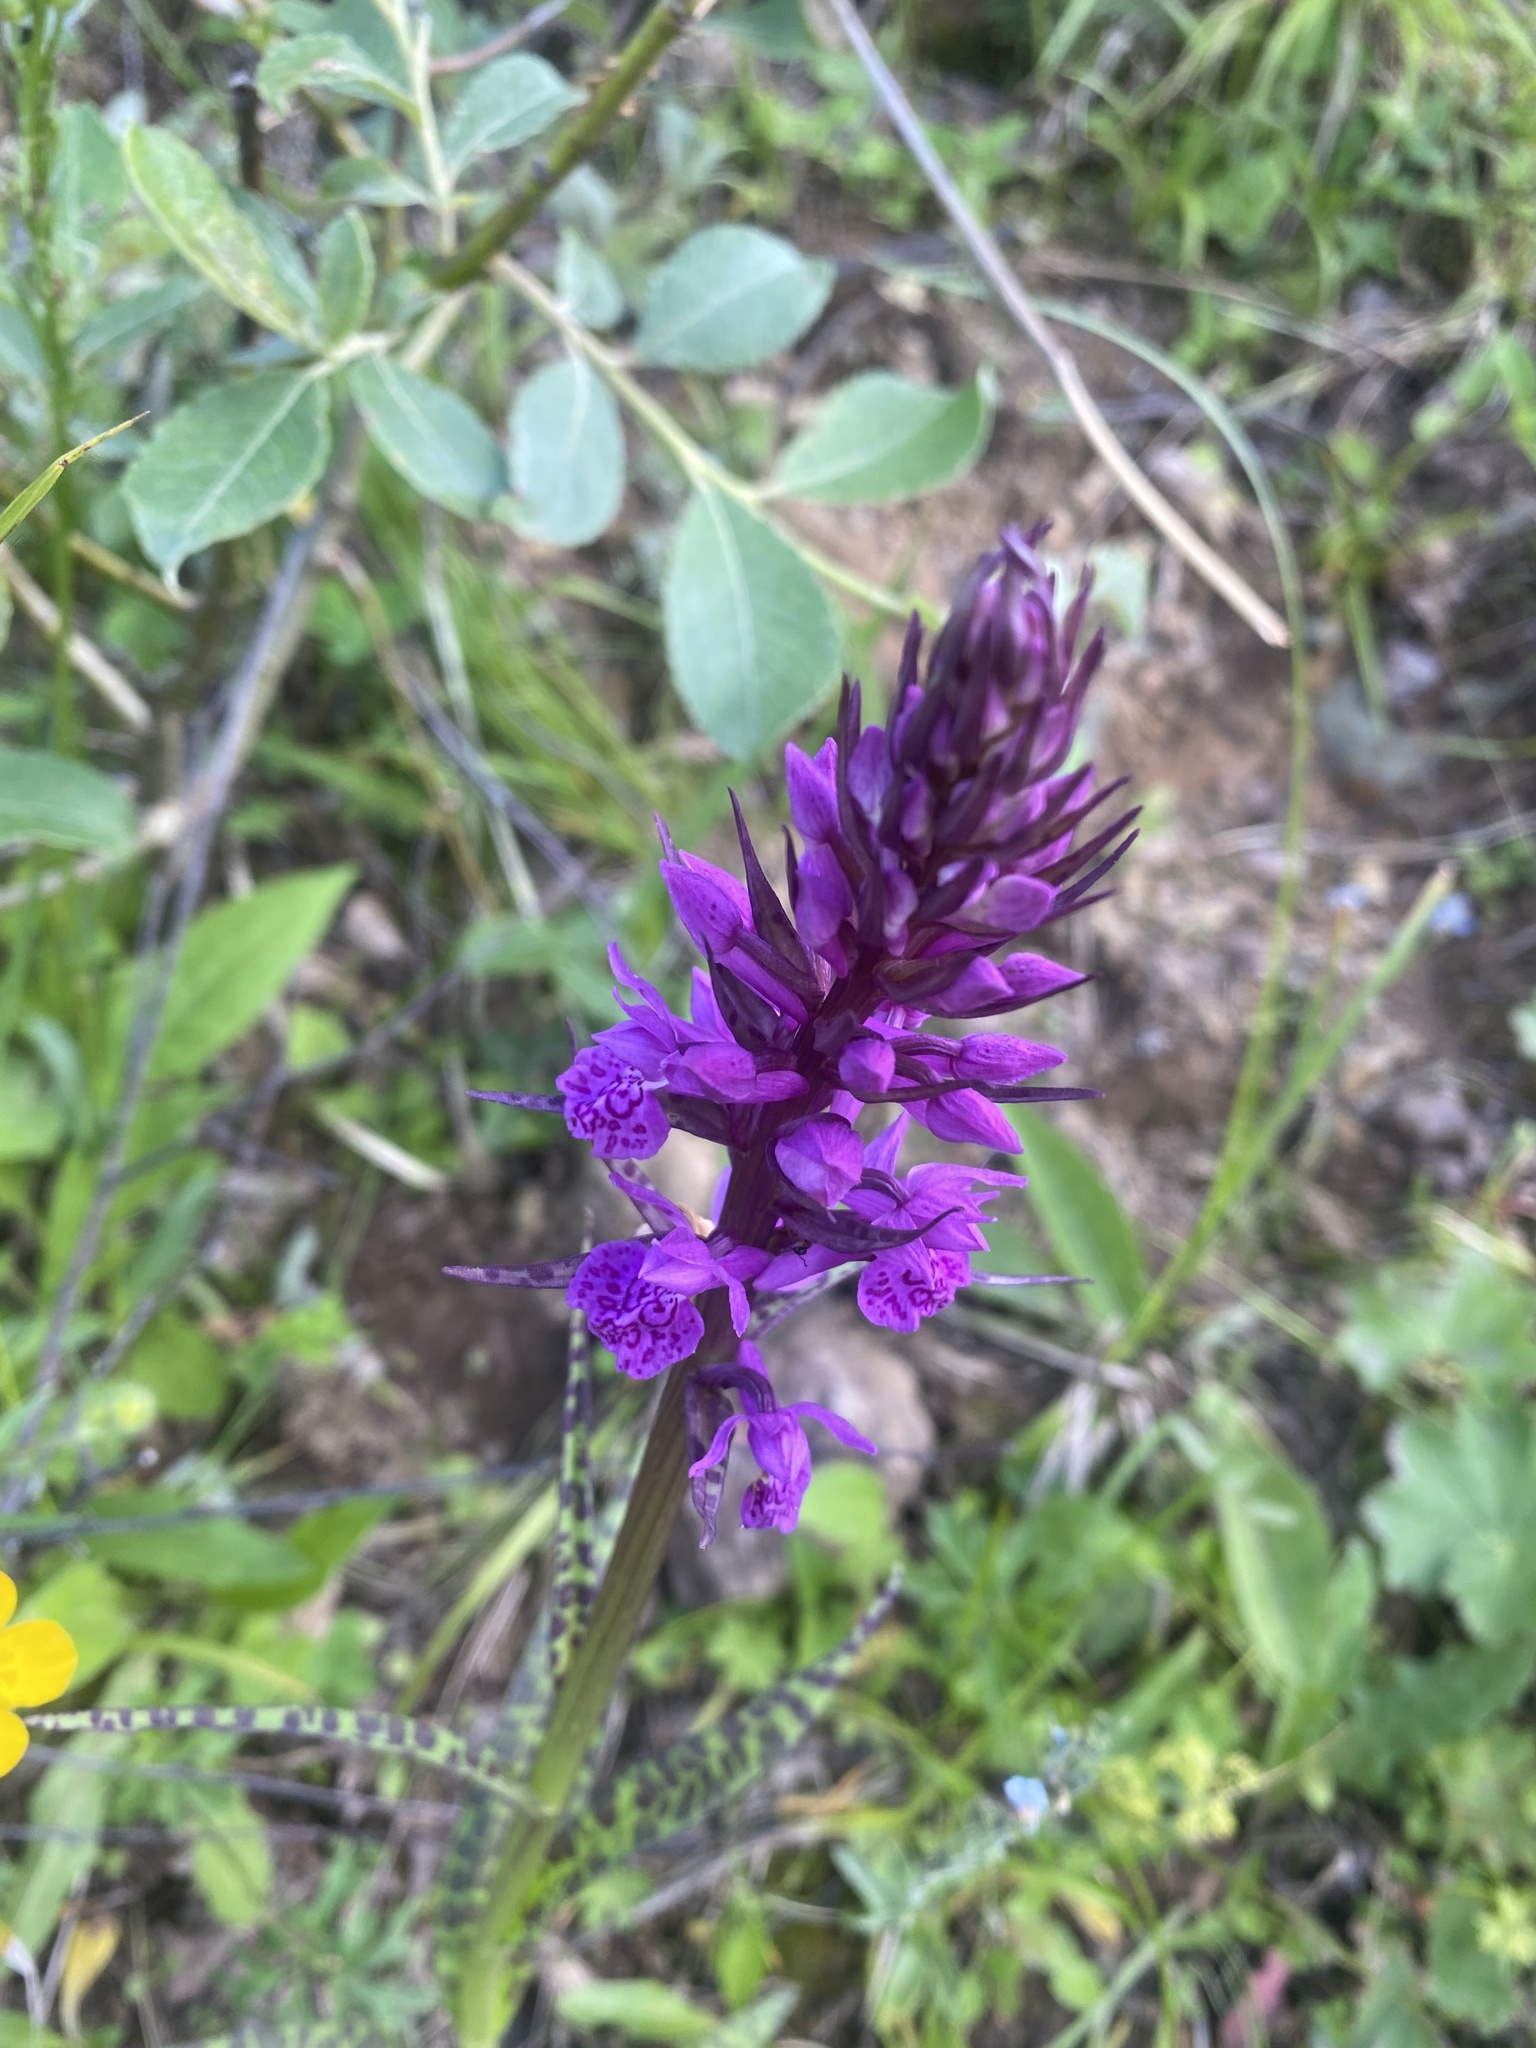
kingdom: Plantae
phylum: Tracheophyta
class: Liliopsida
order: Asparagales
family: Orchidaceae
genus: Dactylorhiza
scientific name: Dactylorhiza euxina
